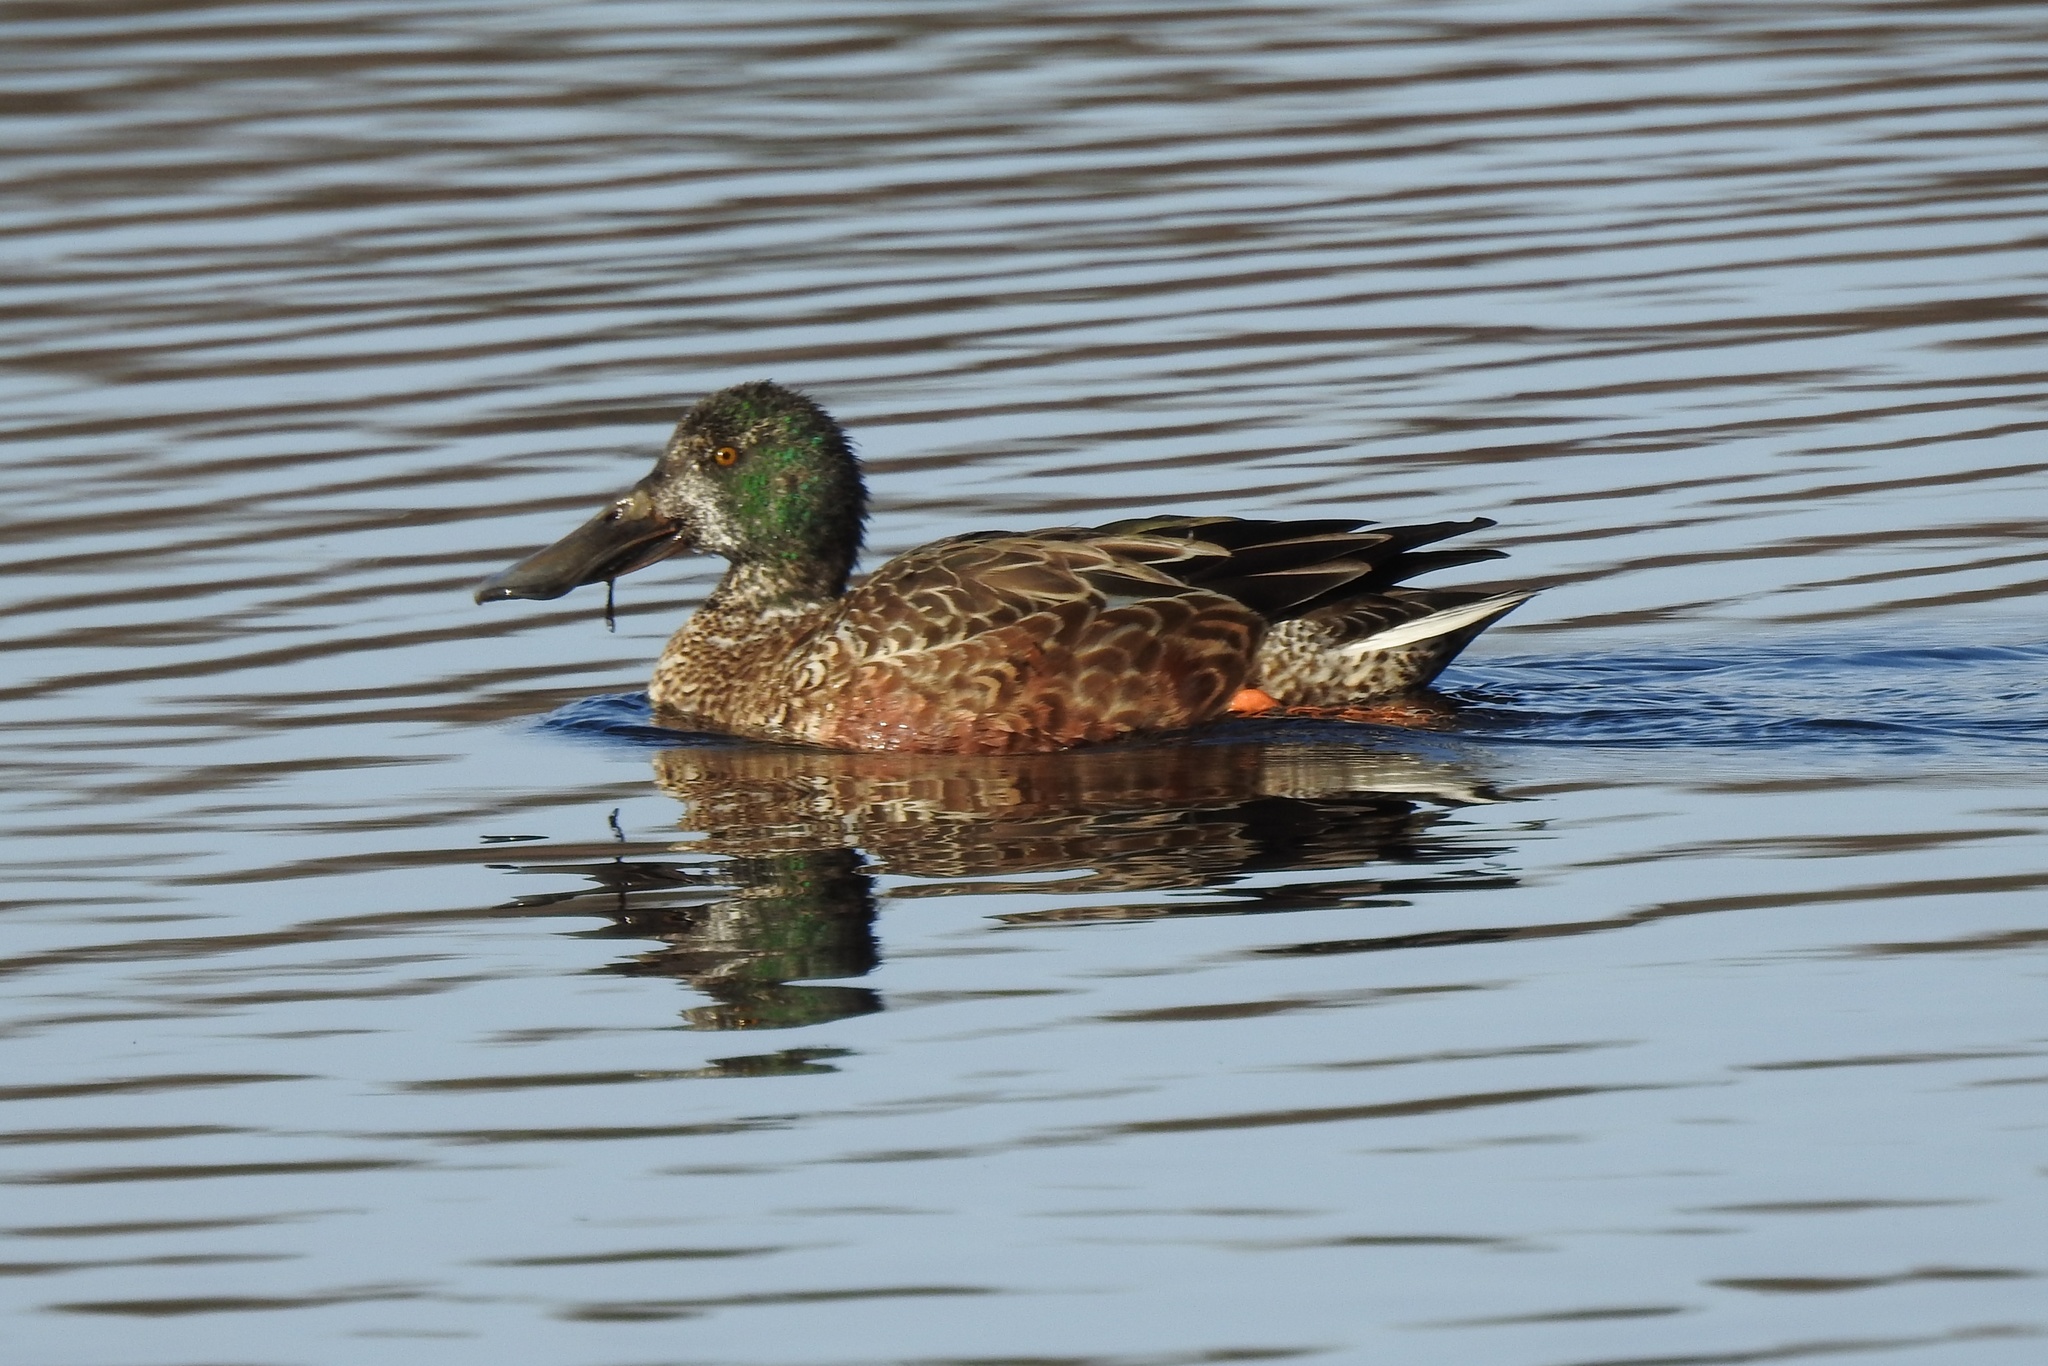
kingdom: Animalia
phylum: Chordata
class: Aves
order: Anseriformes
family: Anatidae
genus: Spatula
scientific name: Spatula clypeata
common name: Northern shoveler
